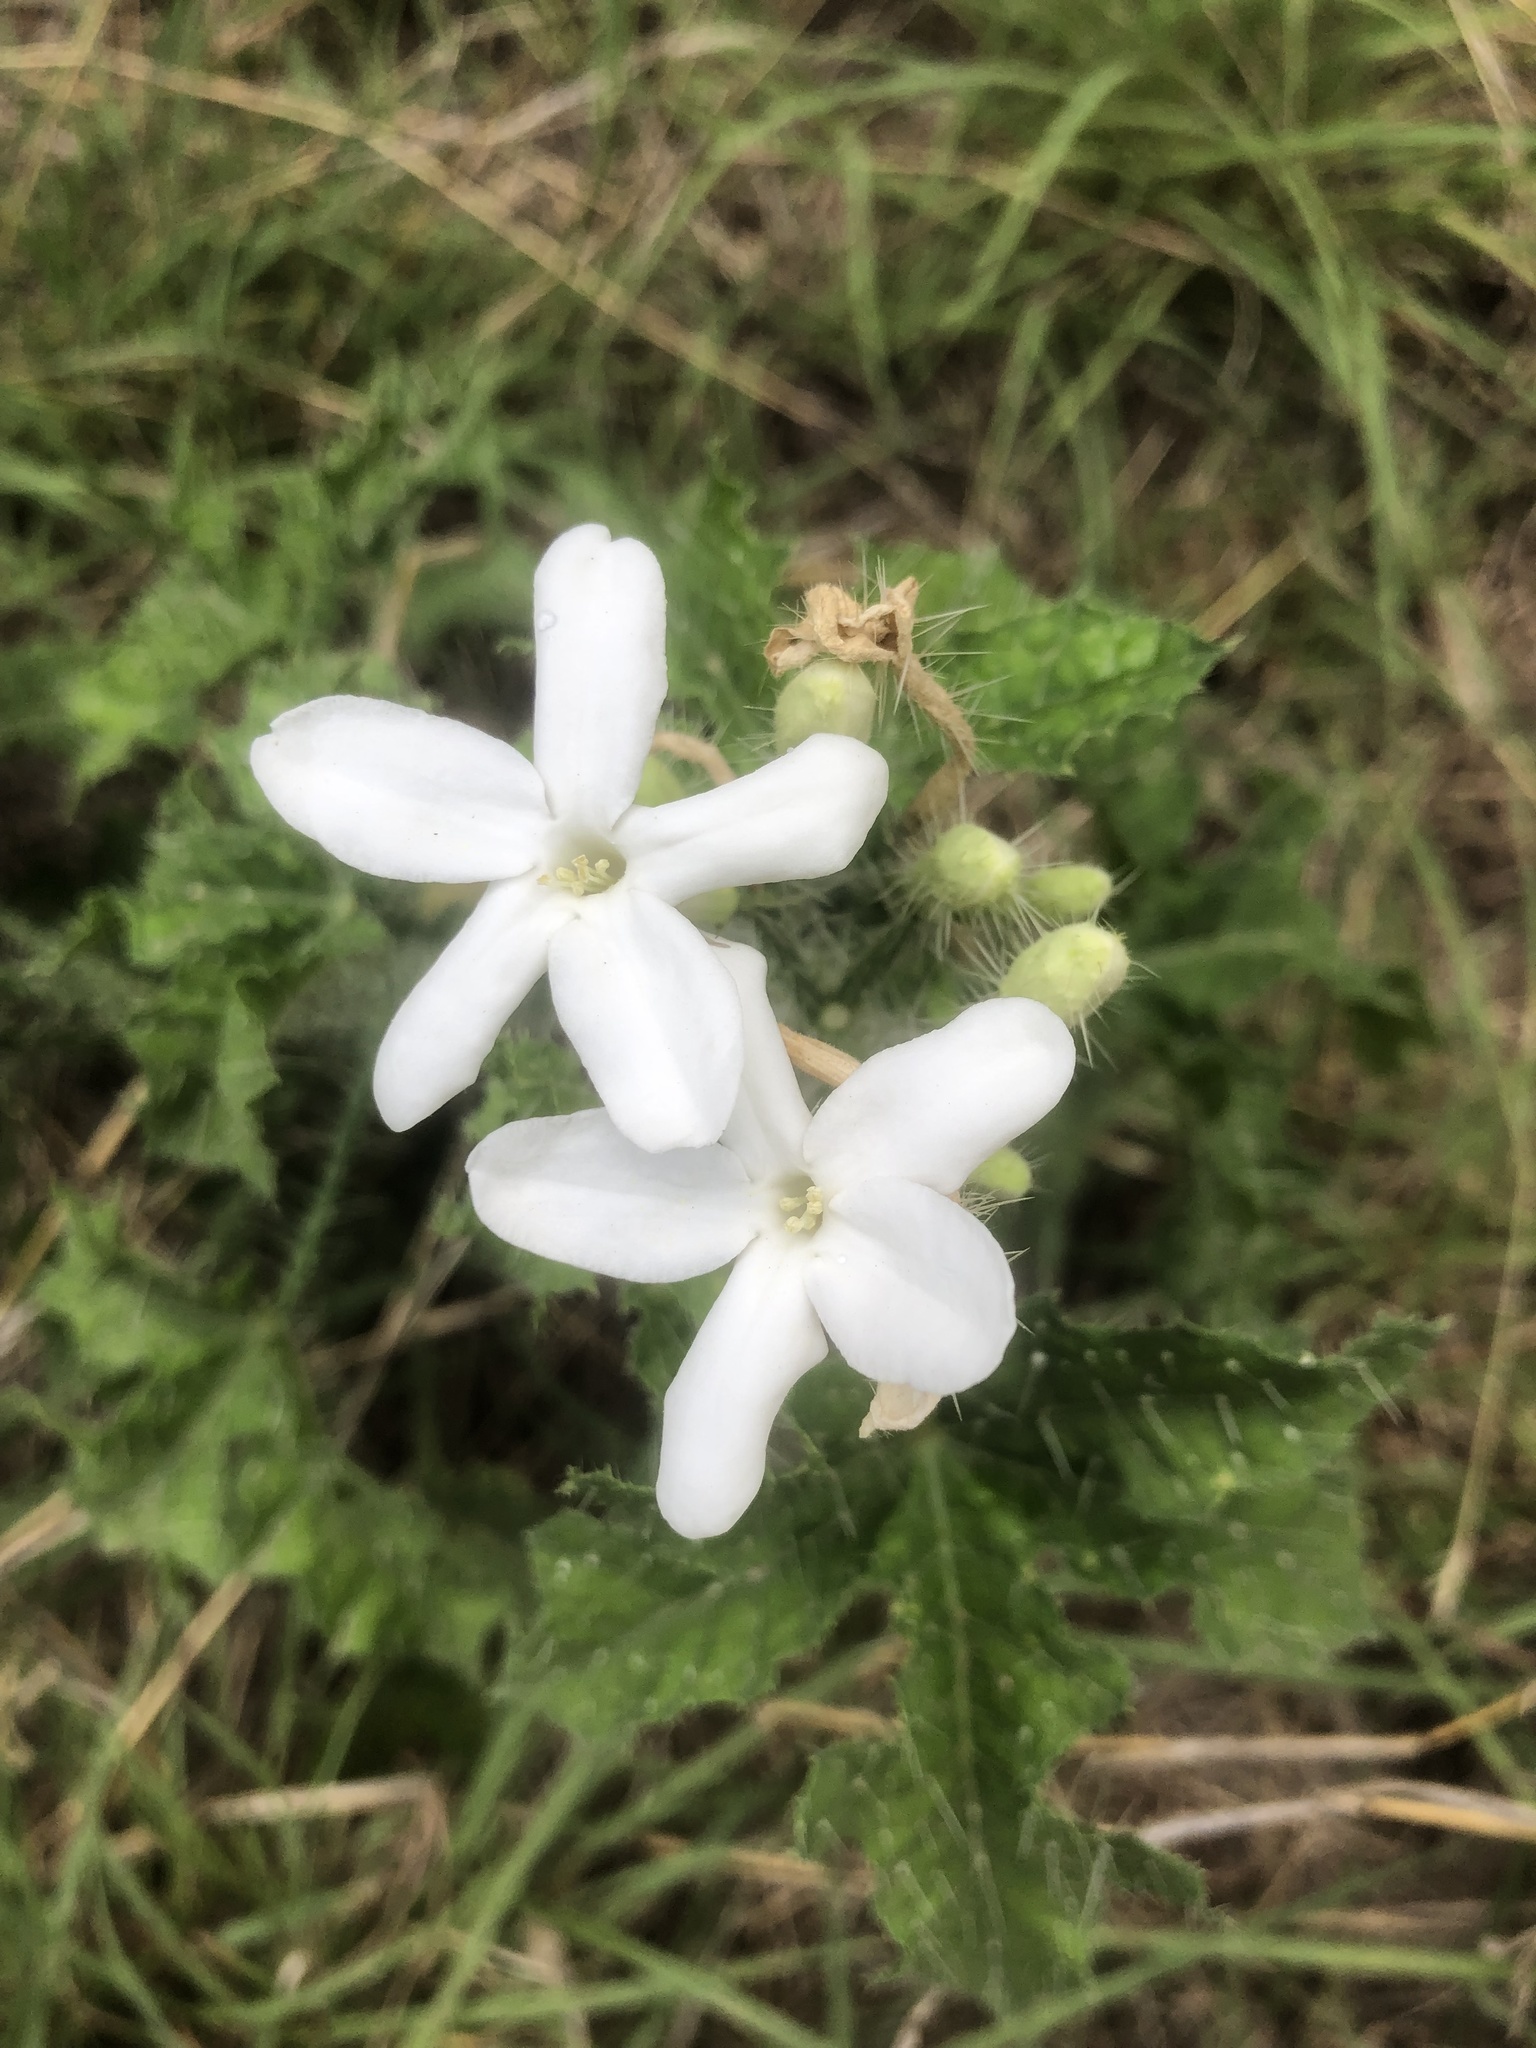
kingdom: Plantae
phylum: Tracheophyta
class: Magnoliopsida
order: Malpighiales
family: Euphorbiaceae
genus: Cnidoscolus
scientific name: Cnidoscolus texanus
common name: Texas bull-nettle
